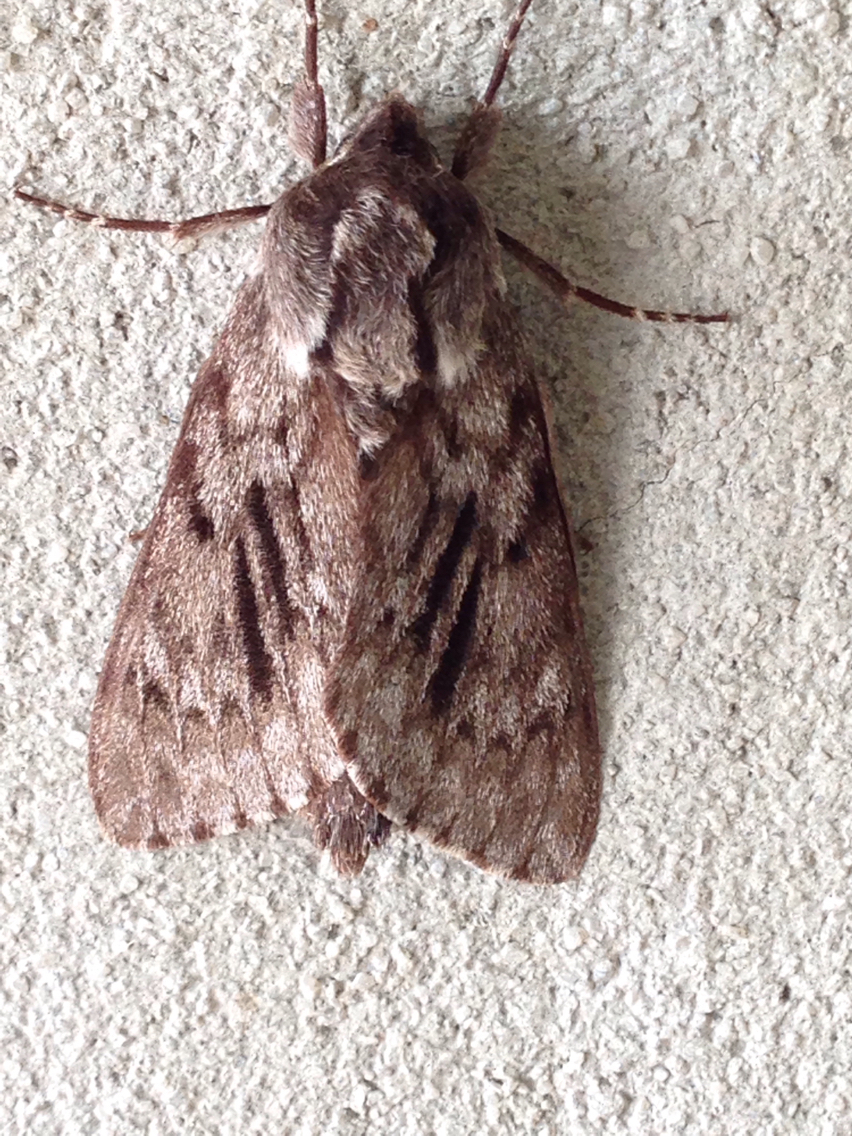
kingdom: Animalia
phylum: Arthropoda
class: Insecta
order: Lepidoptera
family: Sphingidae
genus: Lapara
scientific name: Lapara bombycoides
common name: Northern pine sphinx
